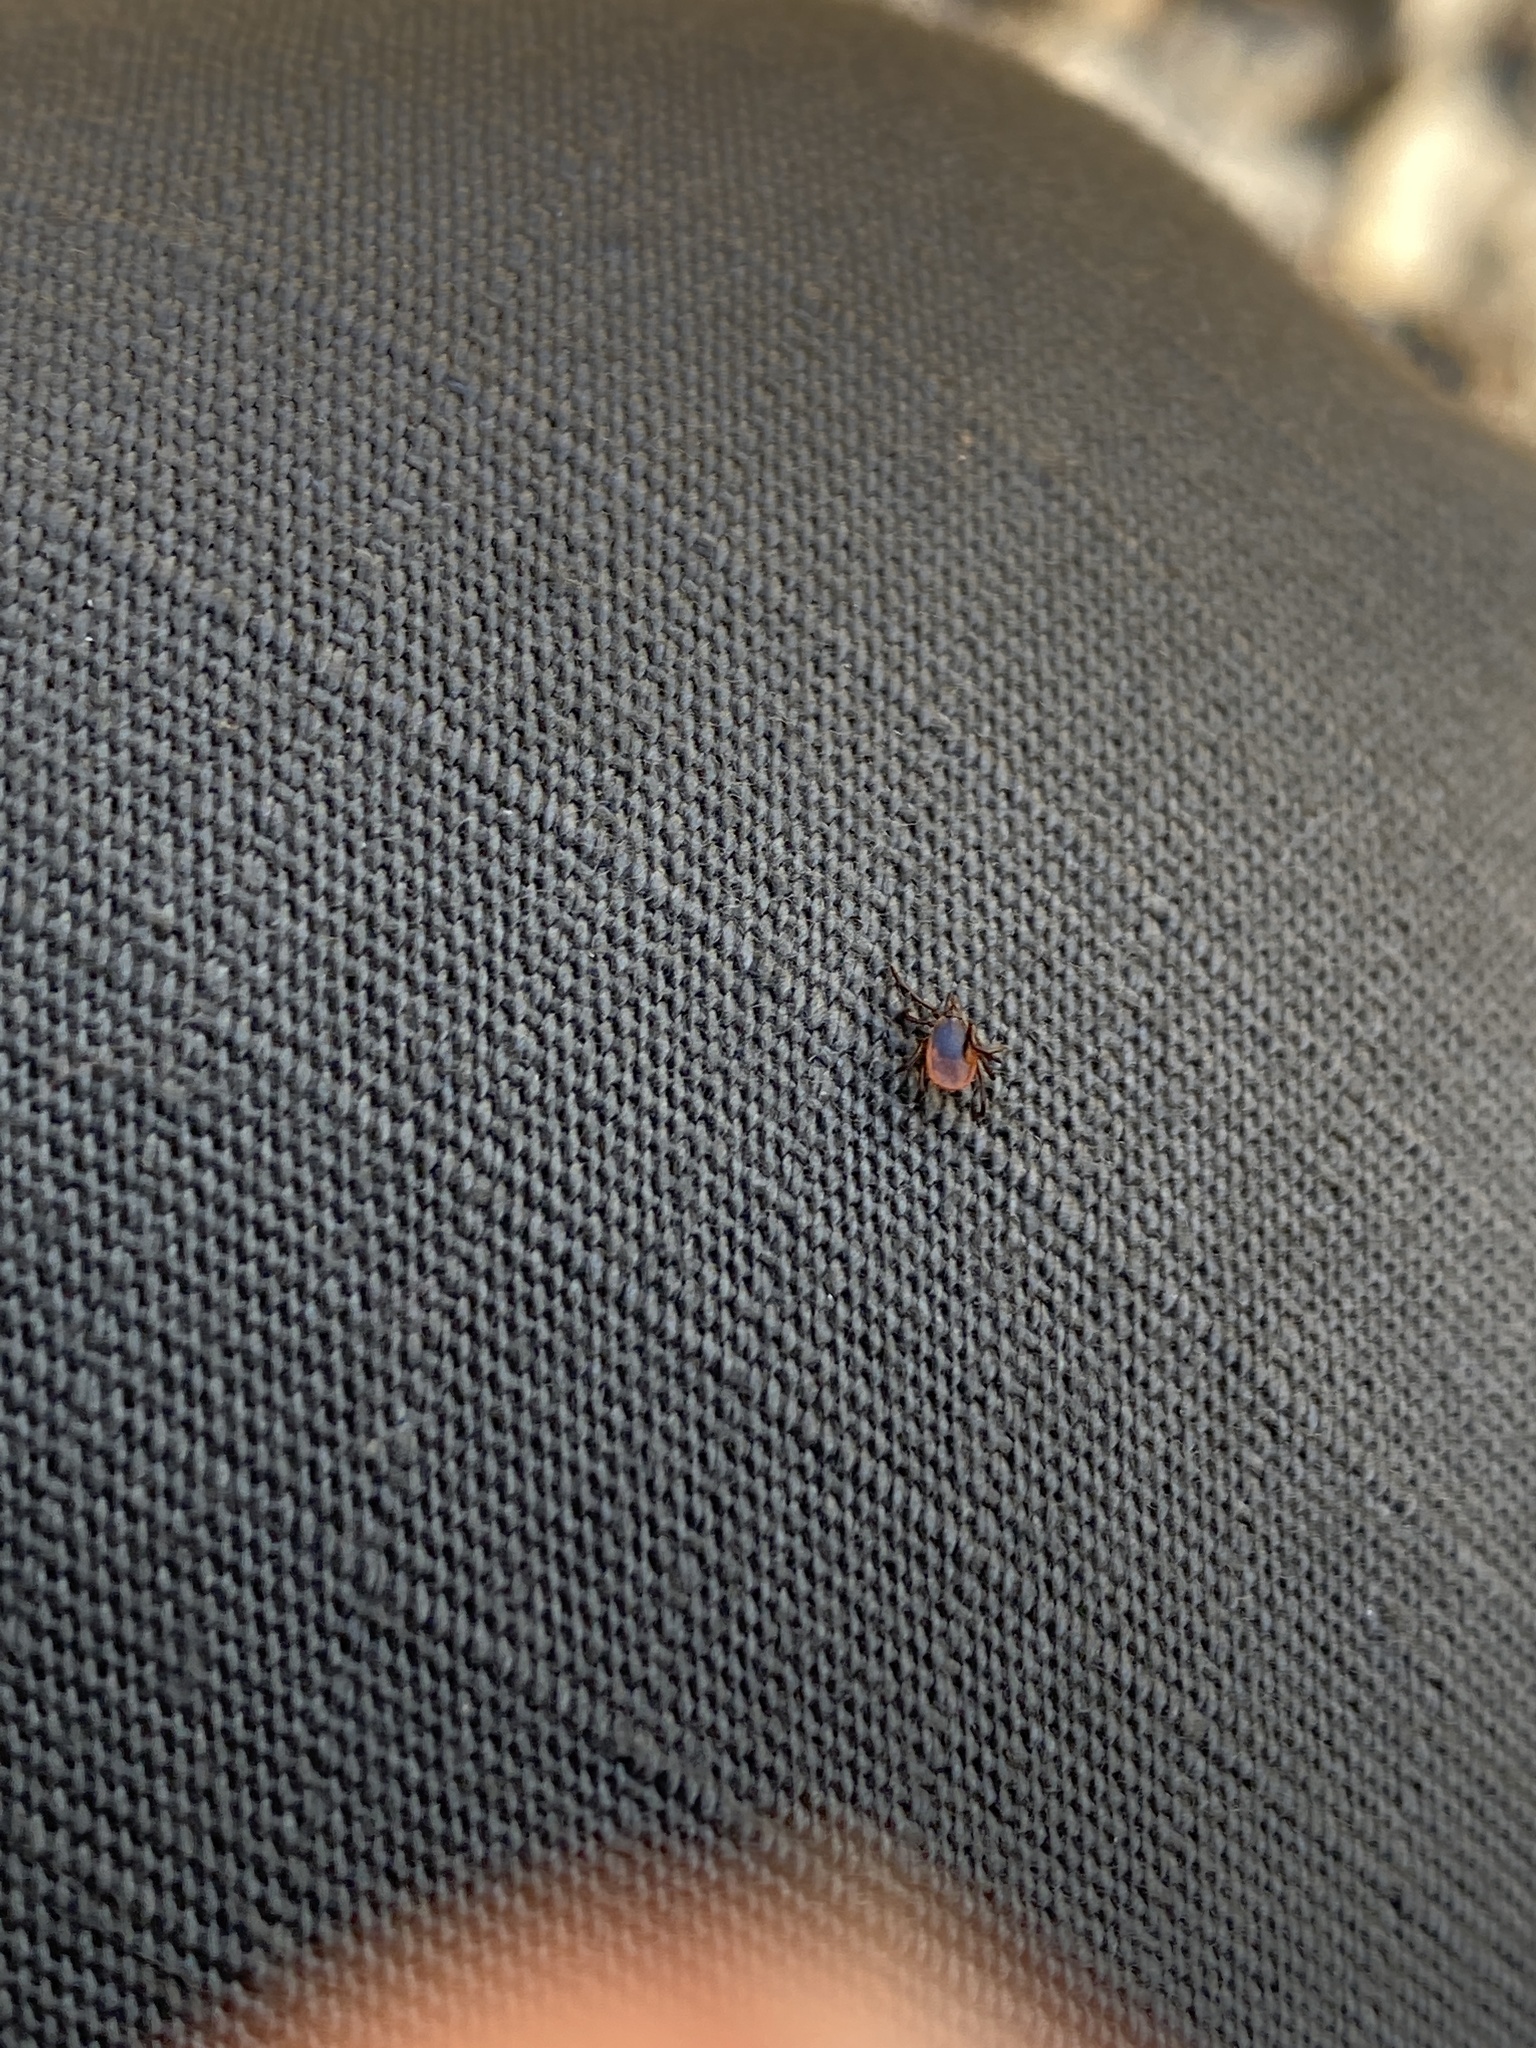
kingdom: Animalia
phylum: Arthropoda
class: Arachnida
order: Ixodida
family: Ixodidae
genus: Ixodes
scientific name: Ixodes scapularis
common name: Black legged tick
